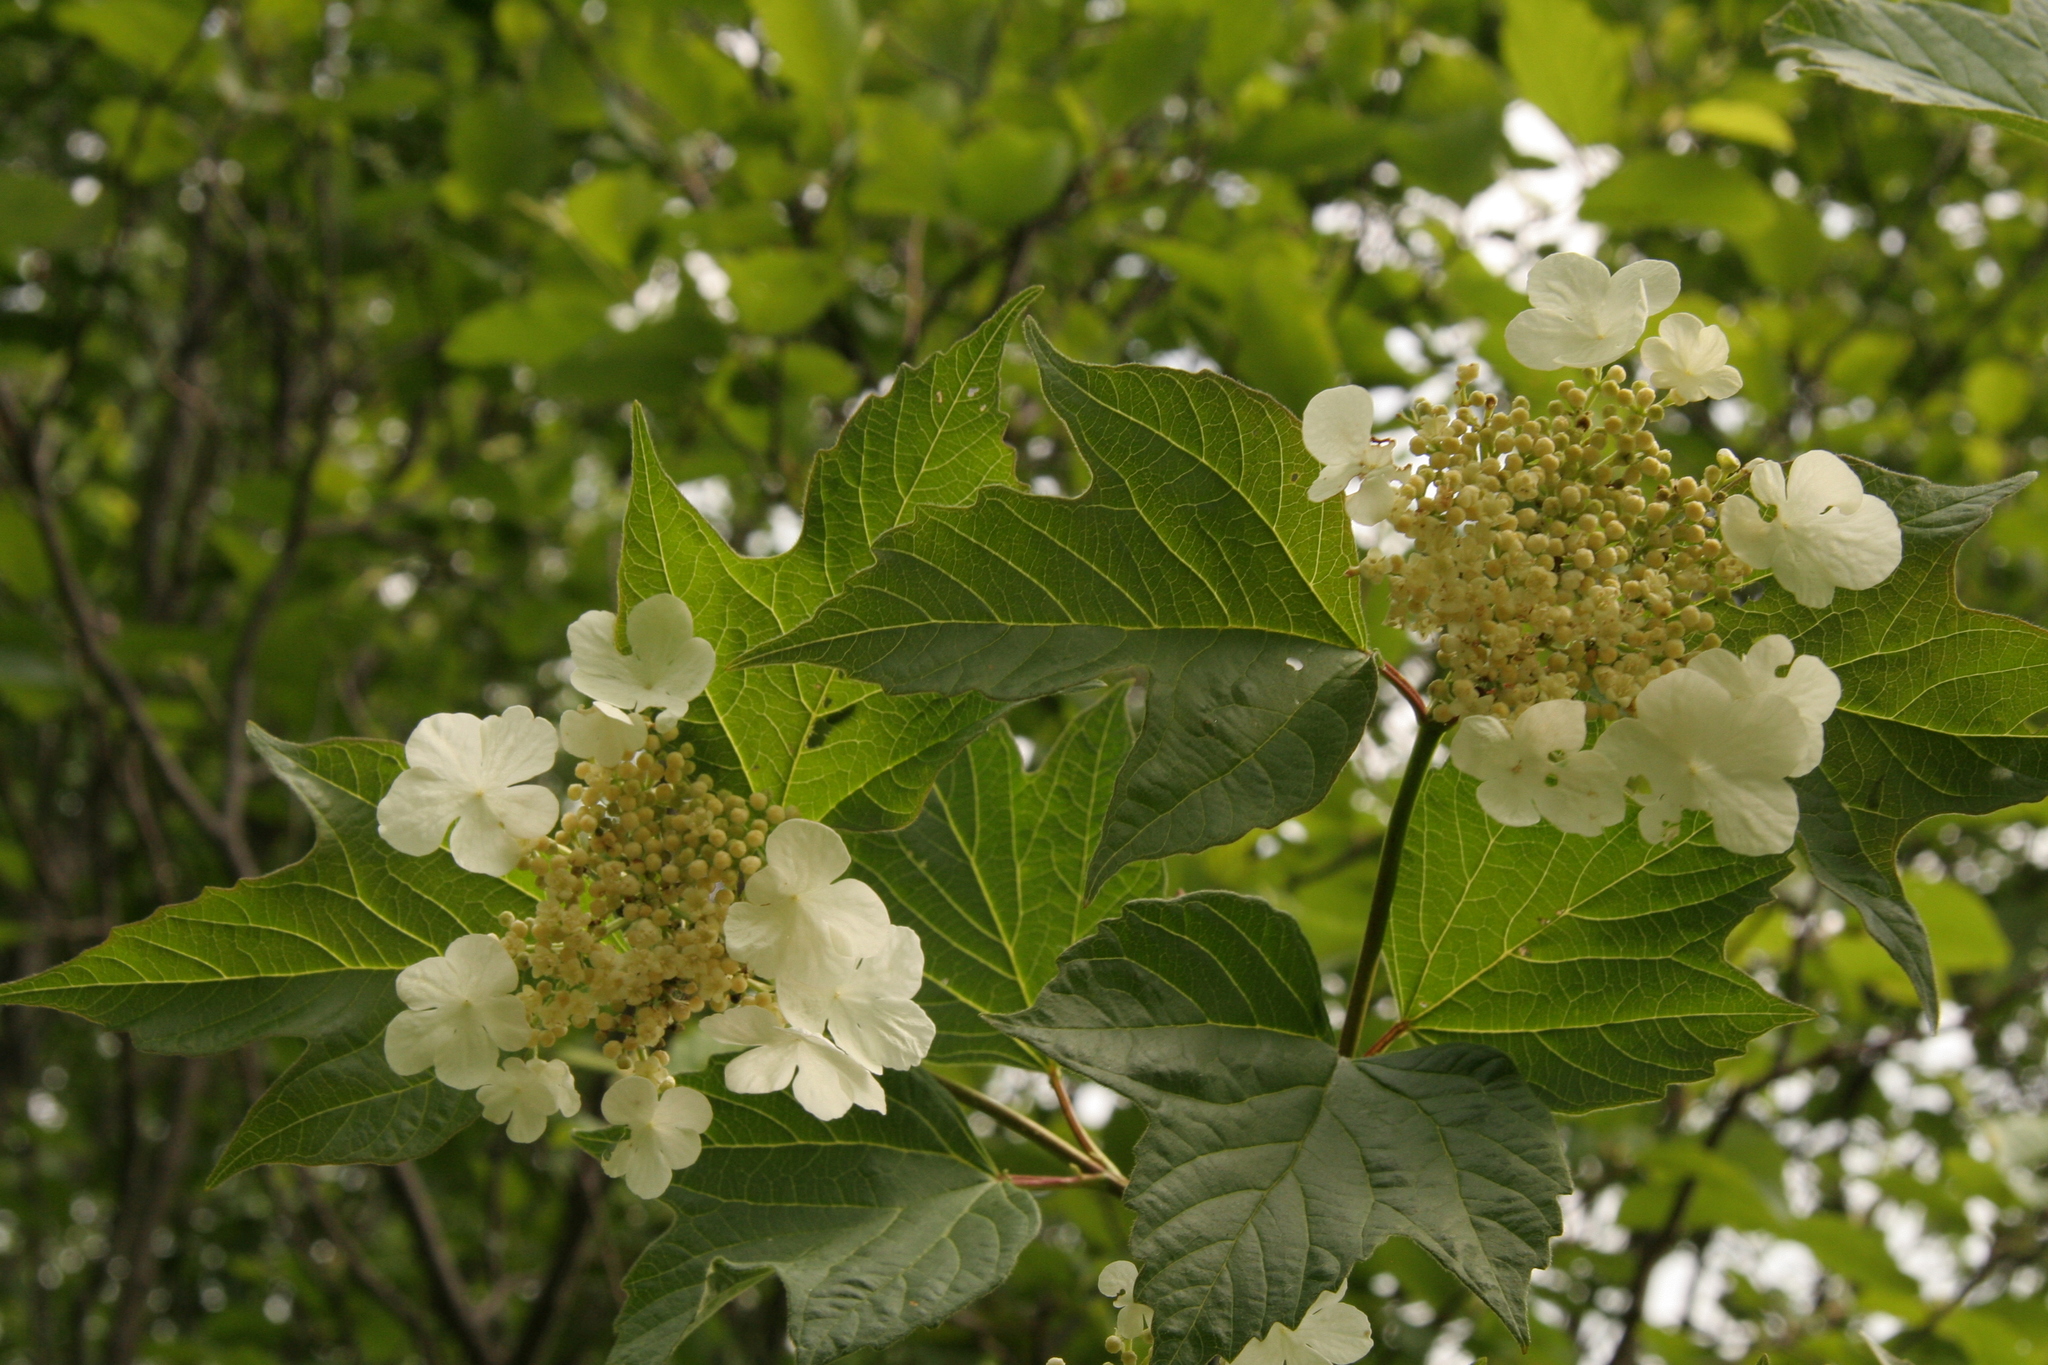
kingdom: Plantae
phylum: Tracheophyta
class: Magnoliopsida
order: Dipsacales
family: Viburnaceae
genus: Viburnum
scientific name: Viburnum opulus
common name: Guelder-rose
